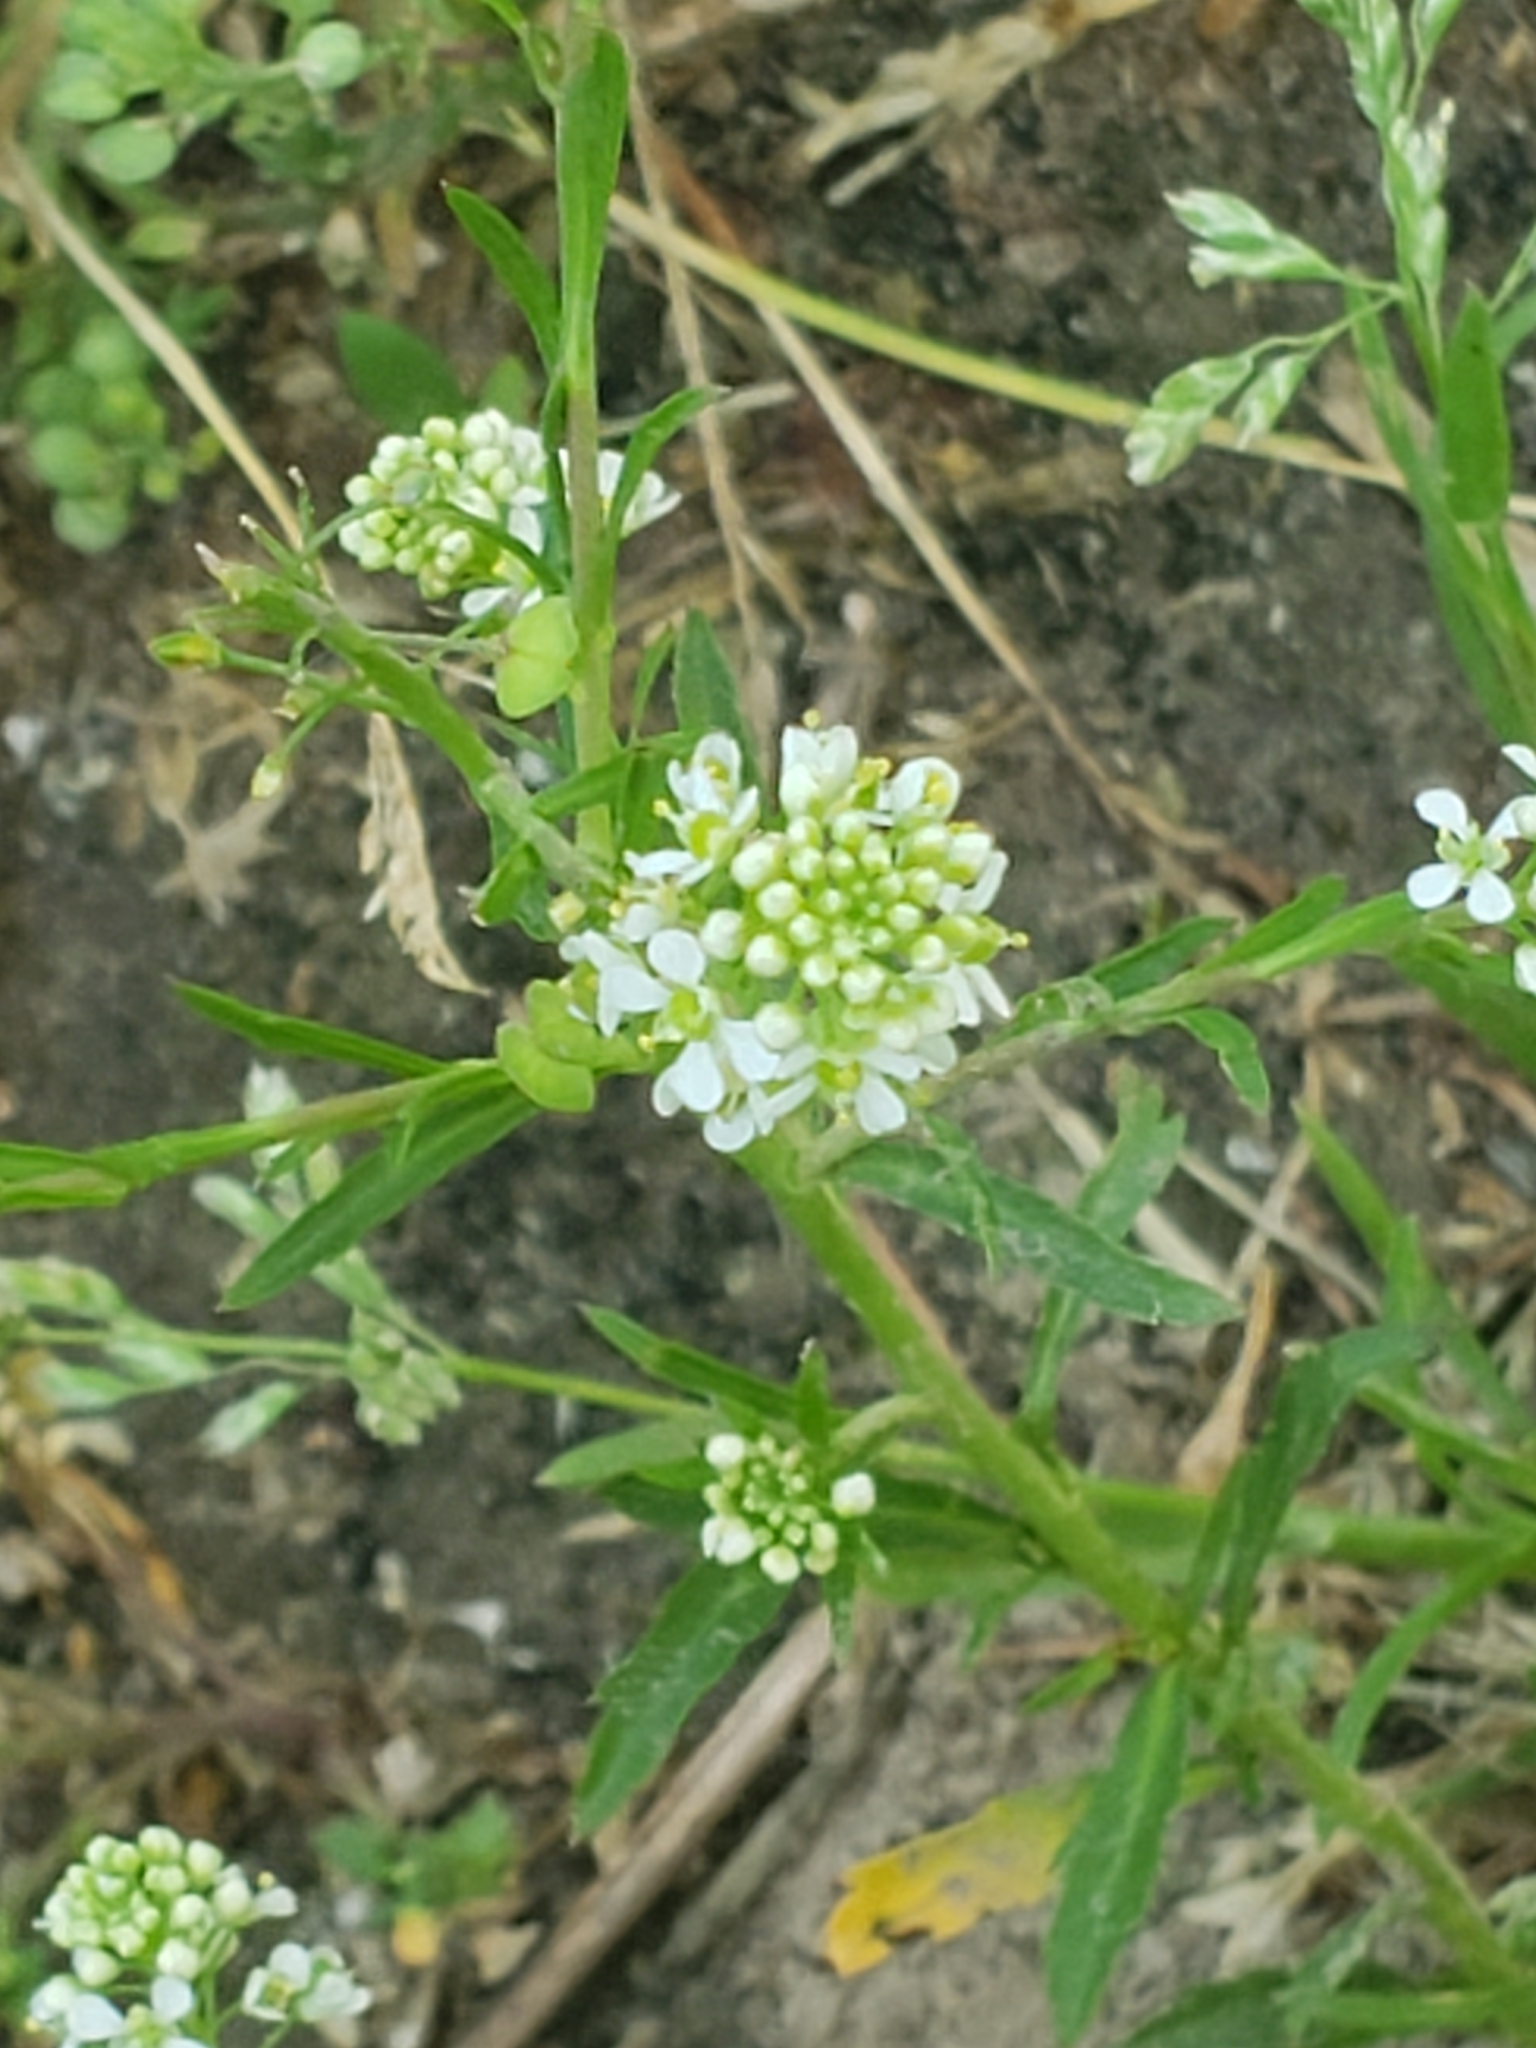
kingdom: Plantae
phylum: Tracheophyta
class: Magnoliopsida
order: Brassicales
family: Brassicaceae
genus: Lepidium
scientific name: Lepidium virginicum
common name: Least pepperwort
